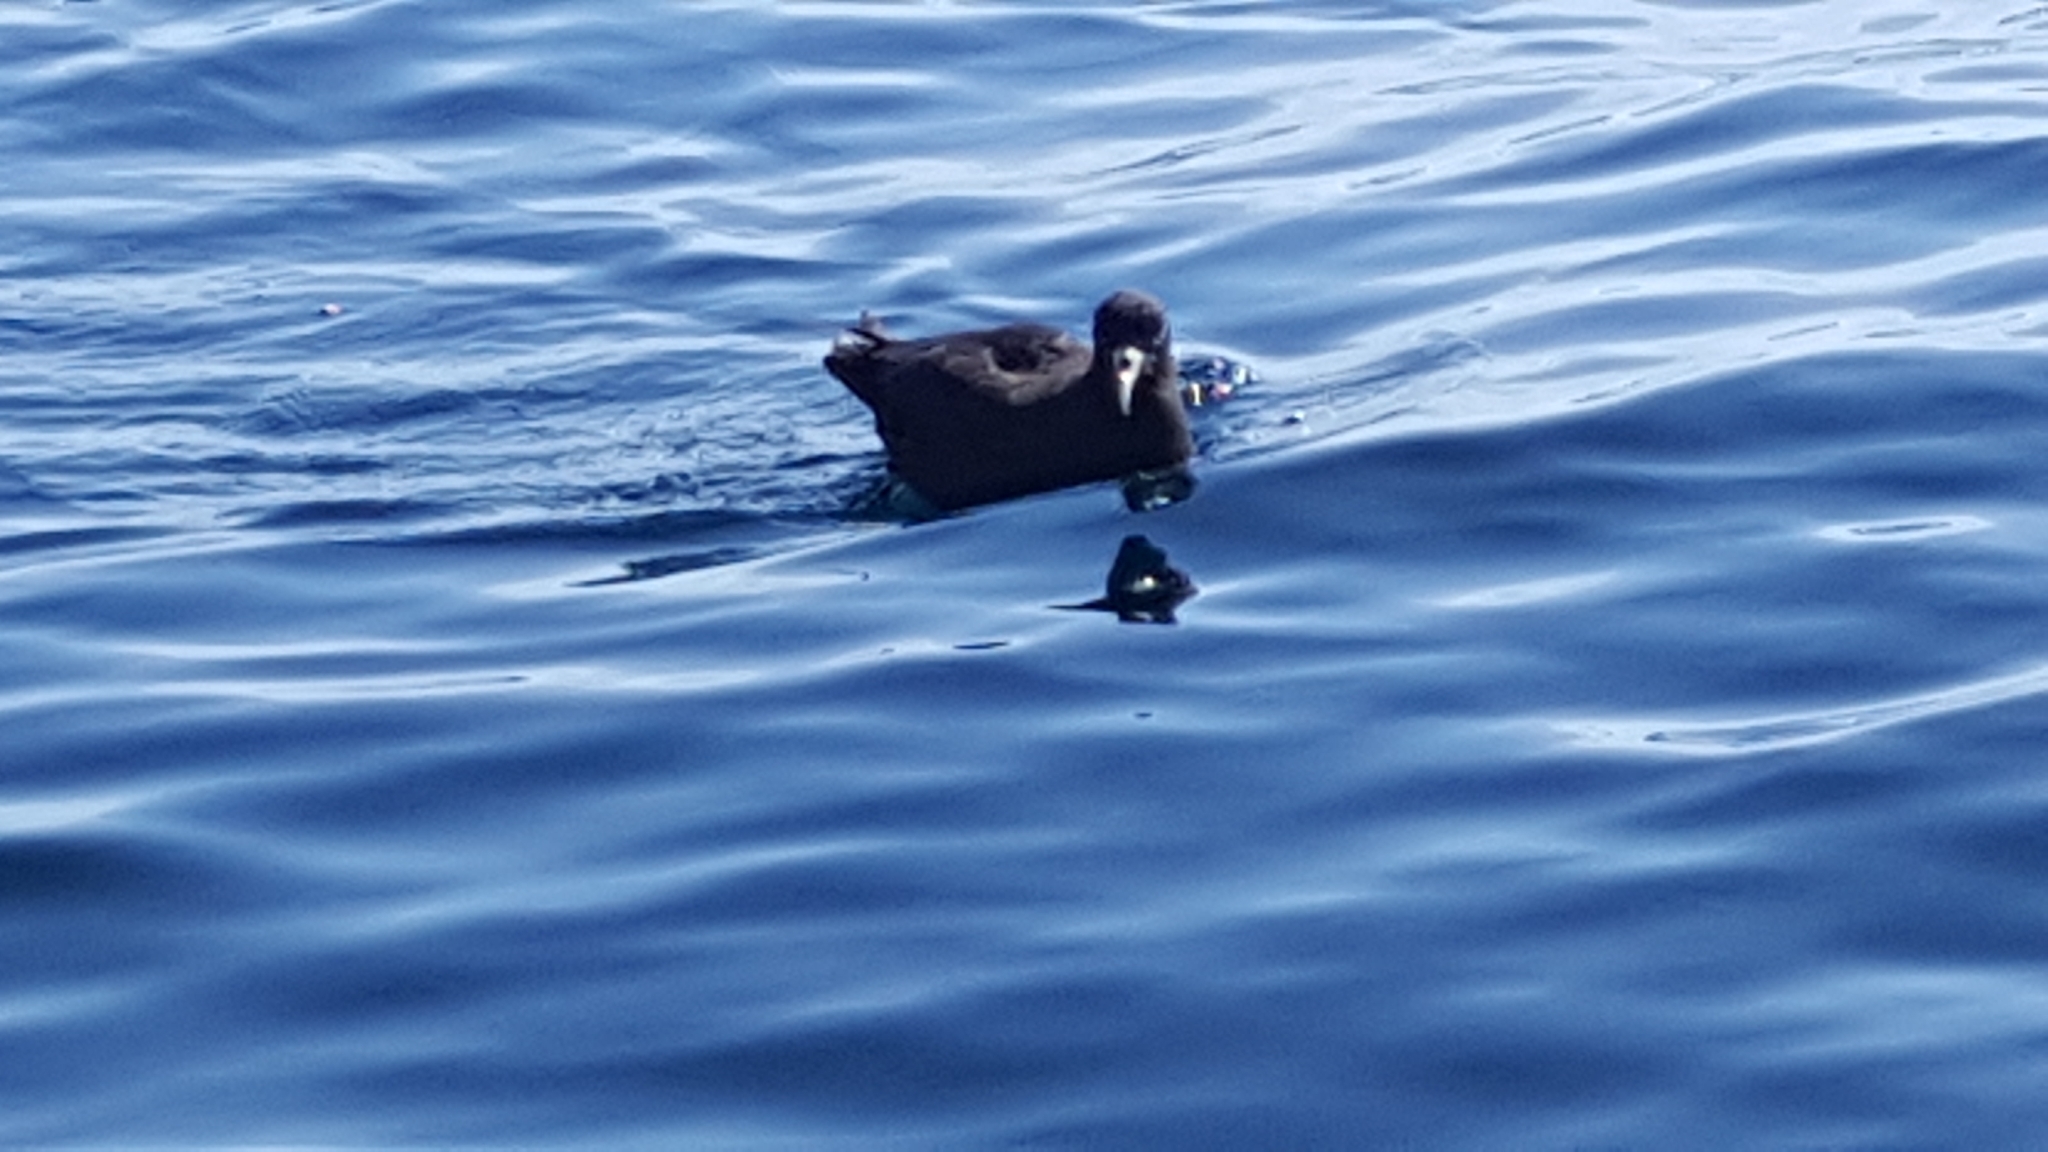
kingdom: Animalia
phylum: Chordata
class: Aves
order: Procellariiformes
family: Procellariidae
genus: Procellaria
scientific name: Procellaria aequinoctialis
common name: White-chinned petrel
